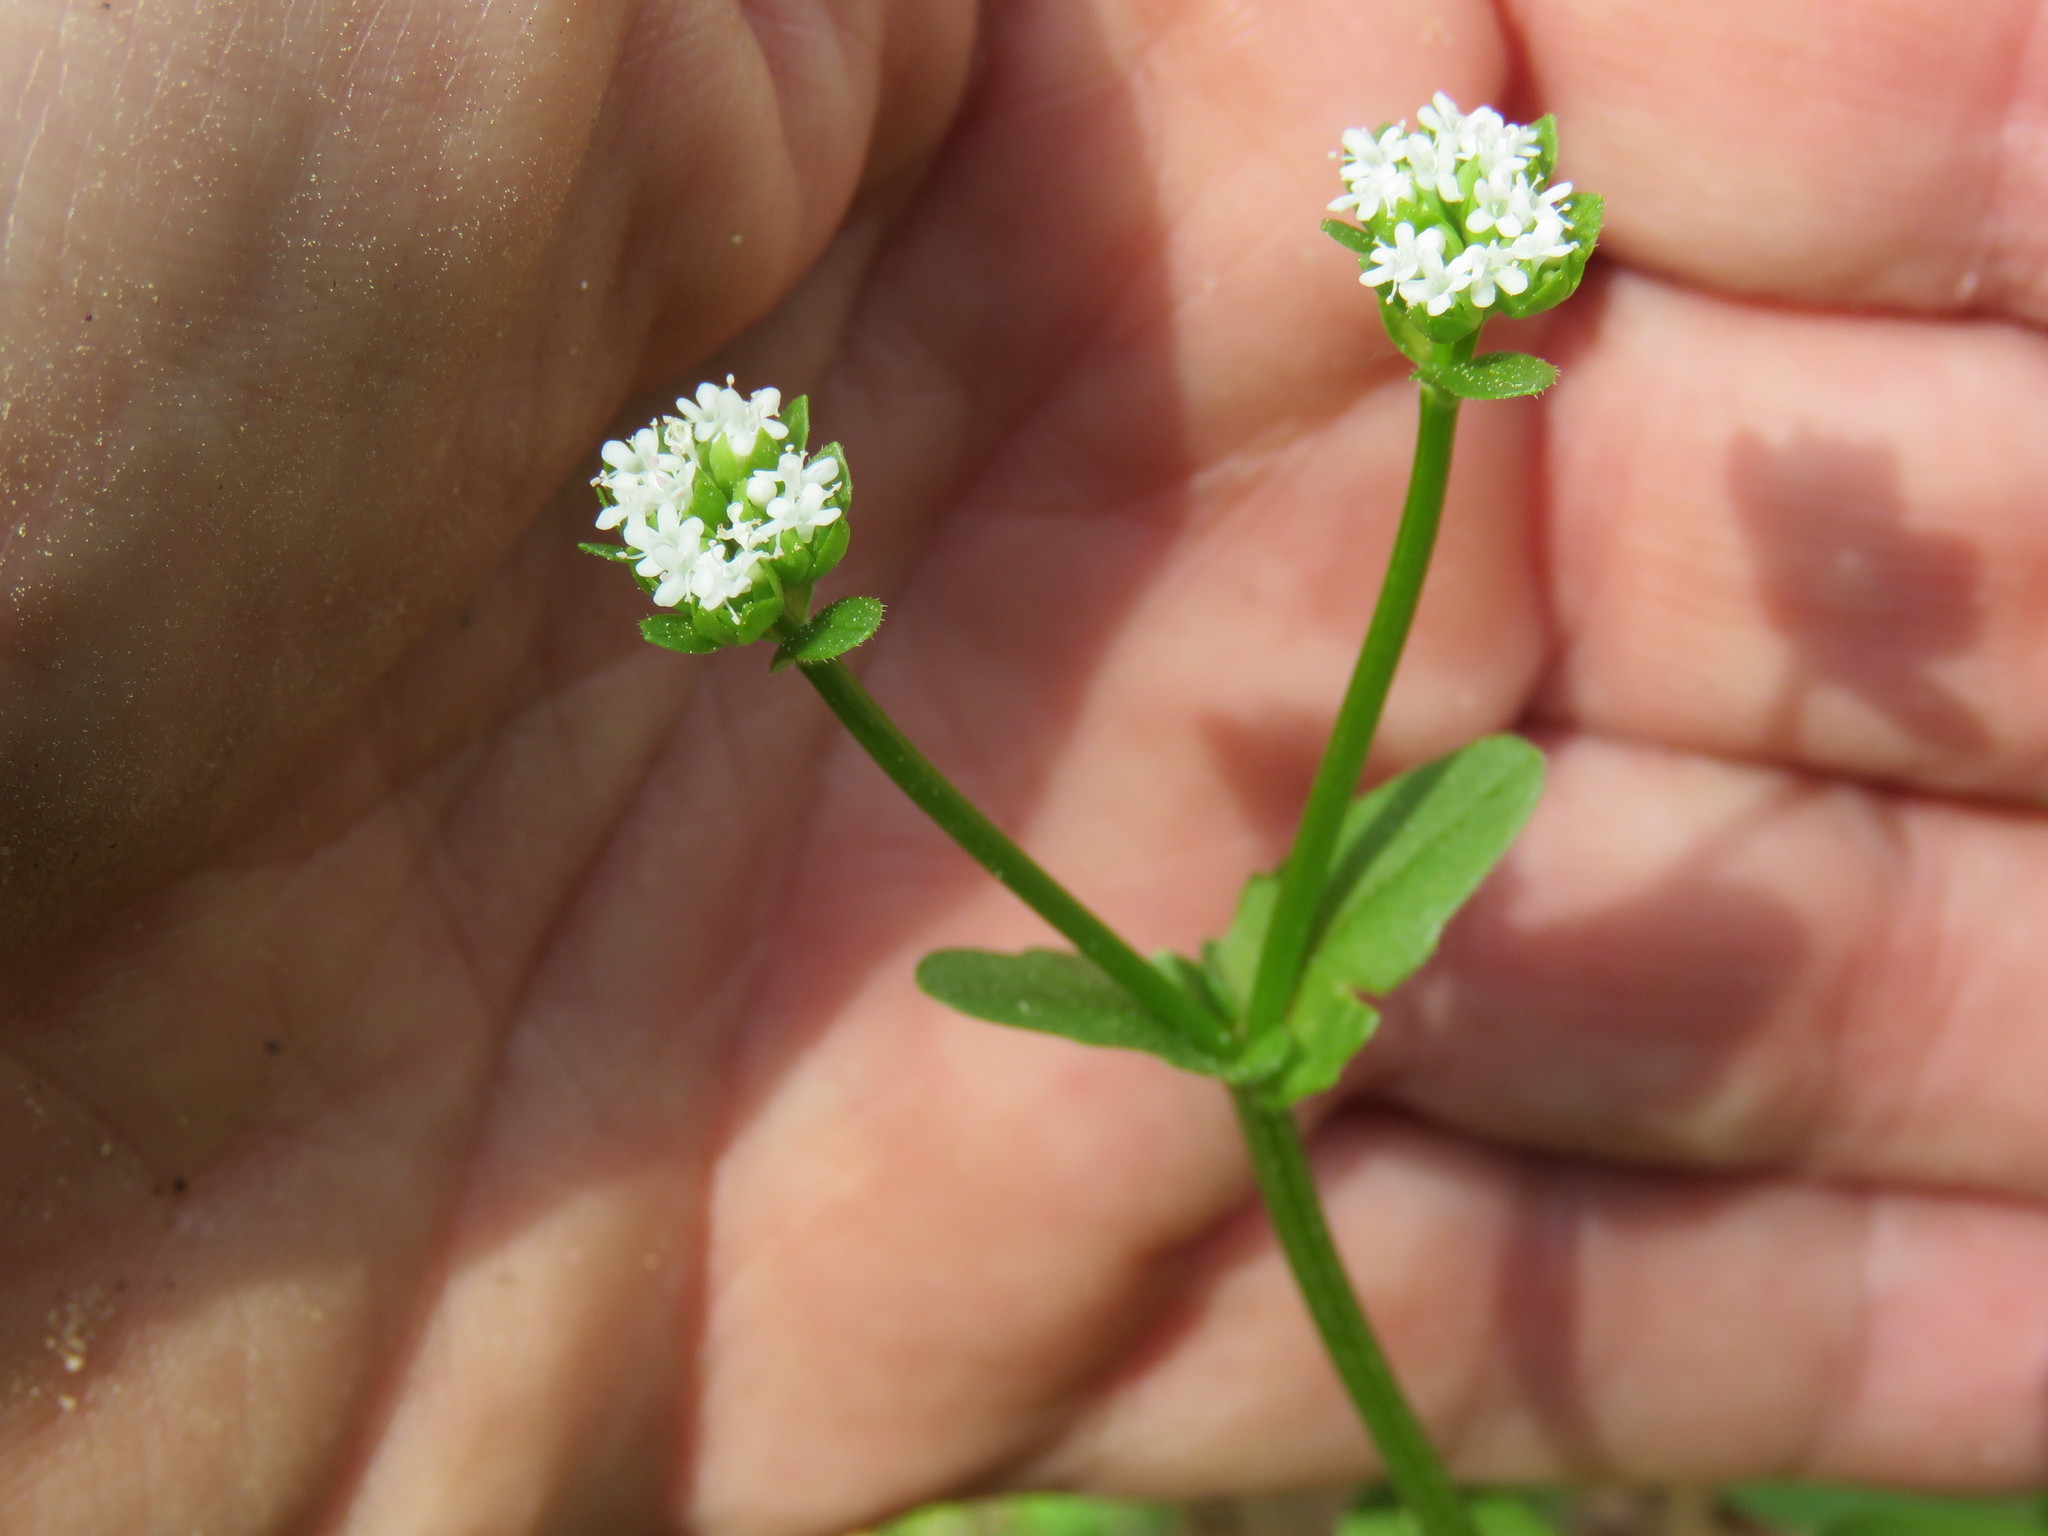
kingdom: Plantae
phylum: Tracheophyta
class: Magnoliopsida
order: Dipsacales
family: Caprifoliaceae
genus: Valerianella
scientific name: Valerianella radiata
